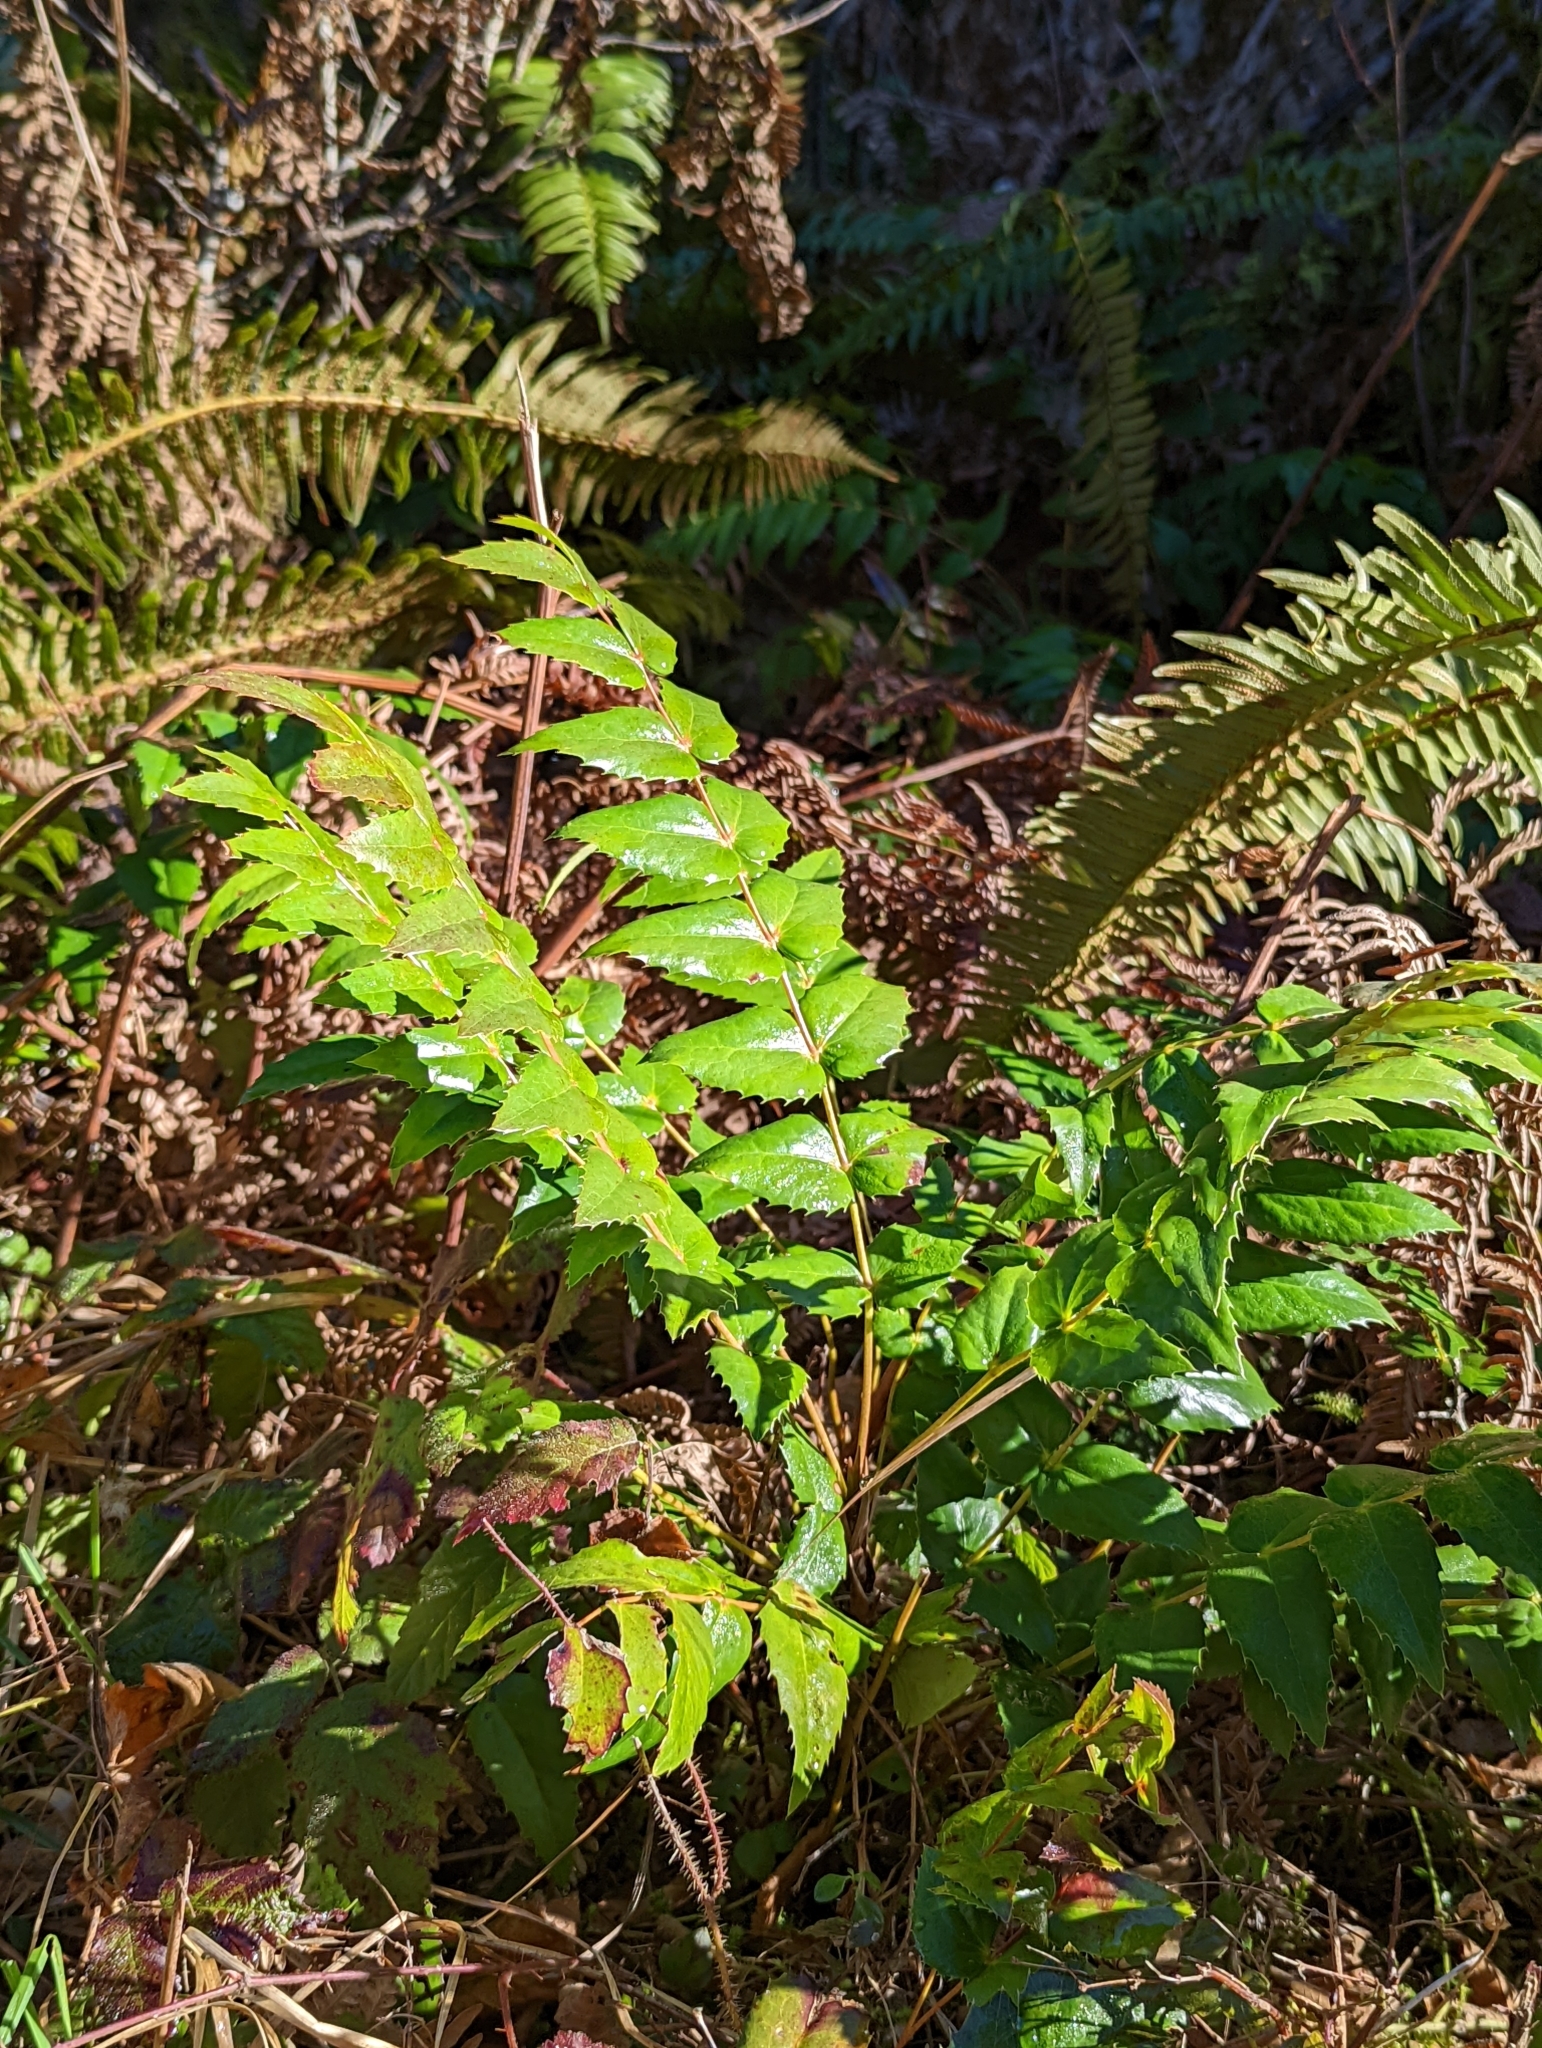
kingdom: Plantae
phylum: Tracheophyta
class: Magnoliopsida
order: Ranunculales
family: Berberidaceae
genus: Mahonia
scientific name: Mahonia nervosa
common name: Cascade oregon-grape
